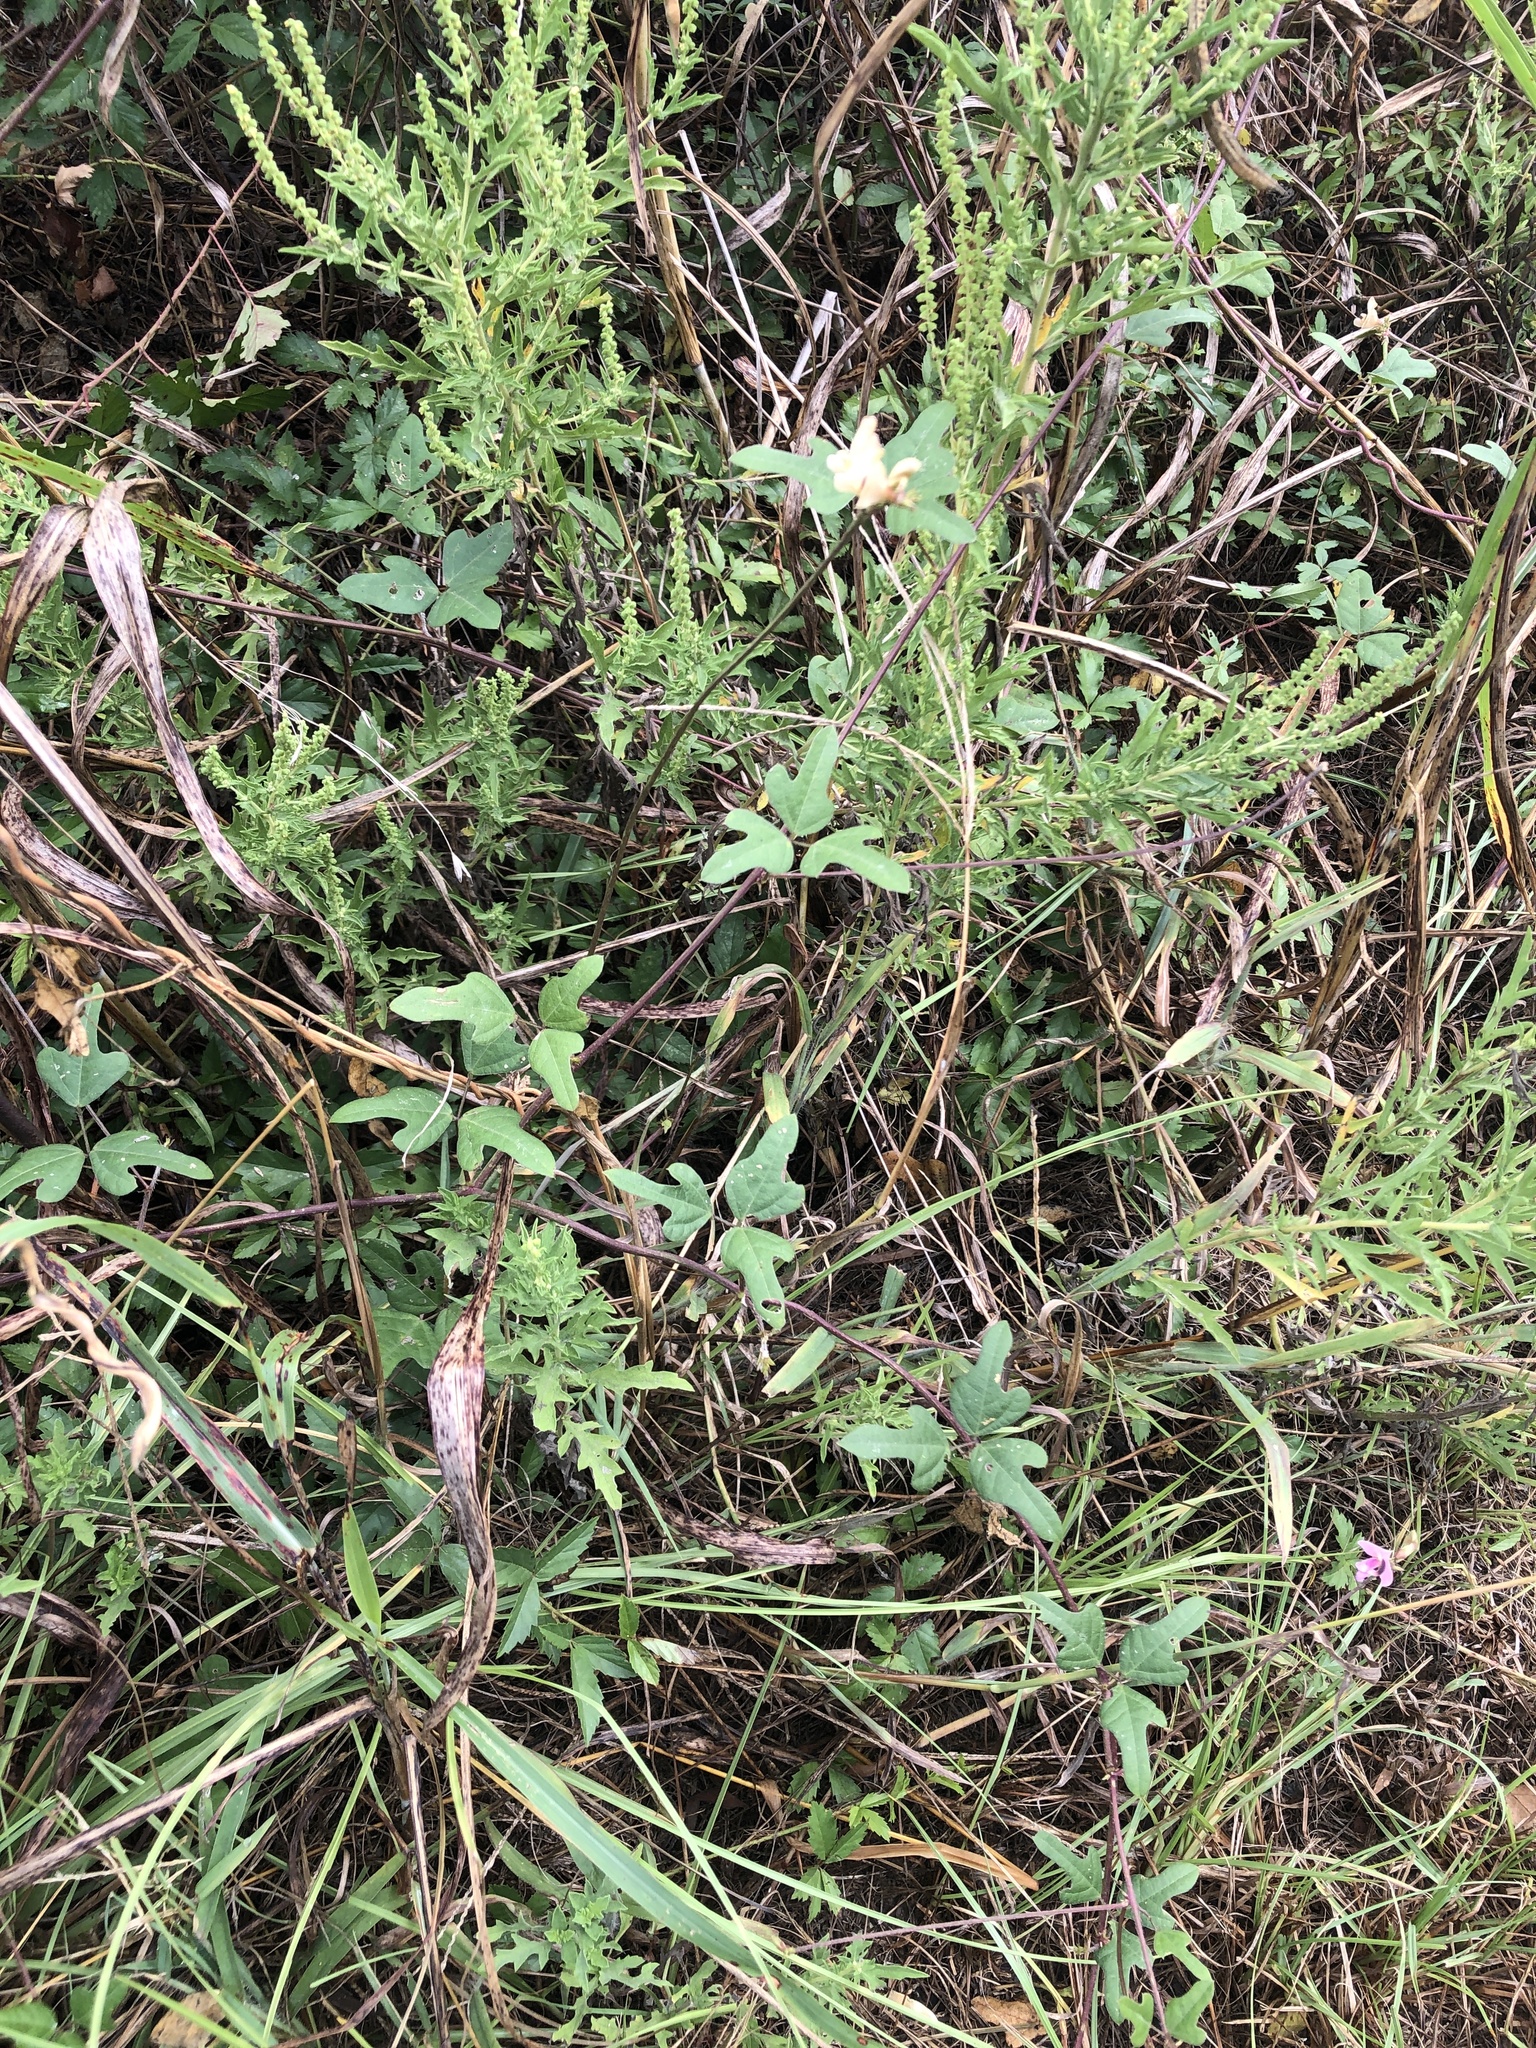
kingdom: Plantae
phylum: Tracheophyta
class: Magnoliopsida
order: Fabales
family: Fabaceae
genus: Strophostyles
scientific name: Strophostyles helvola
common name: Trailing wild bean
